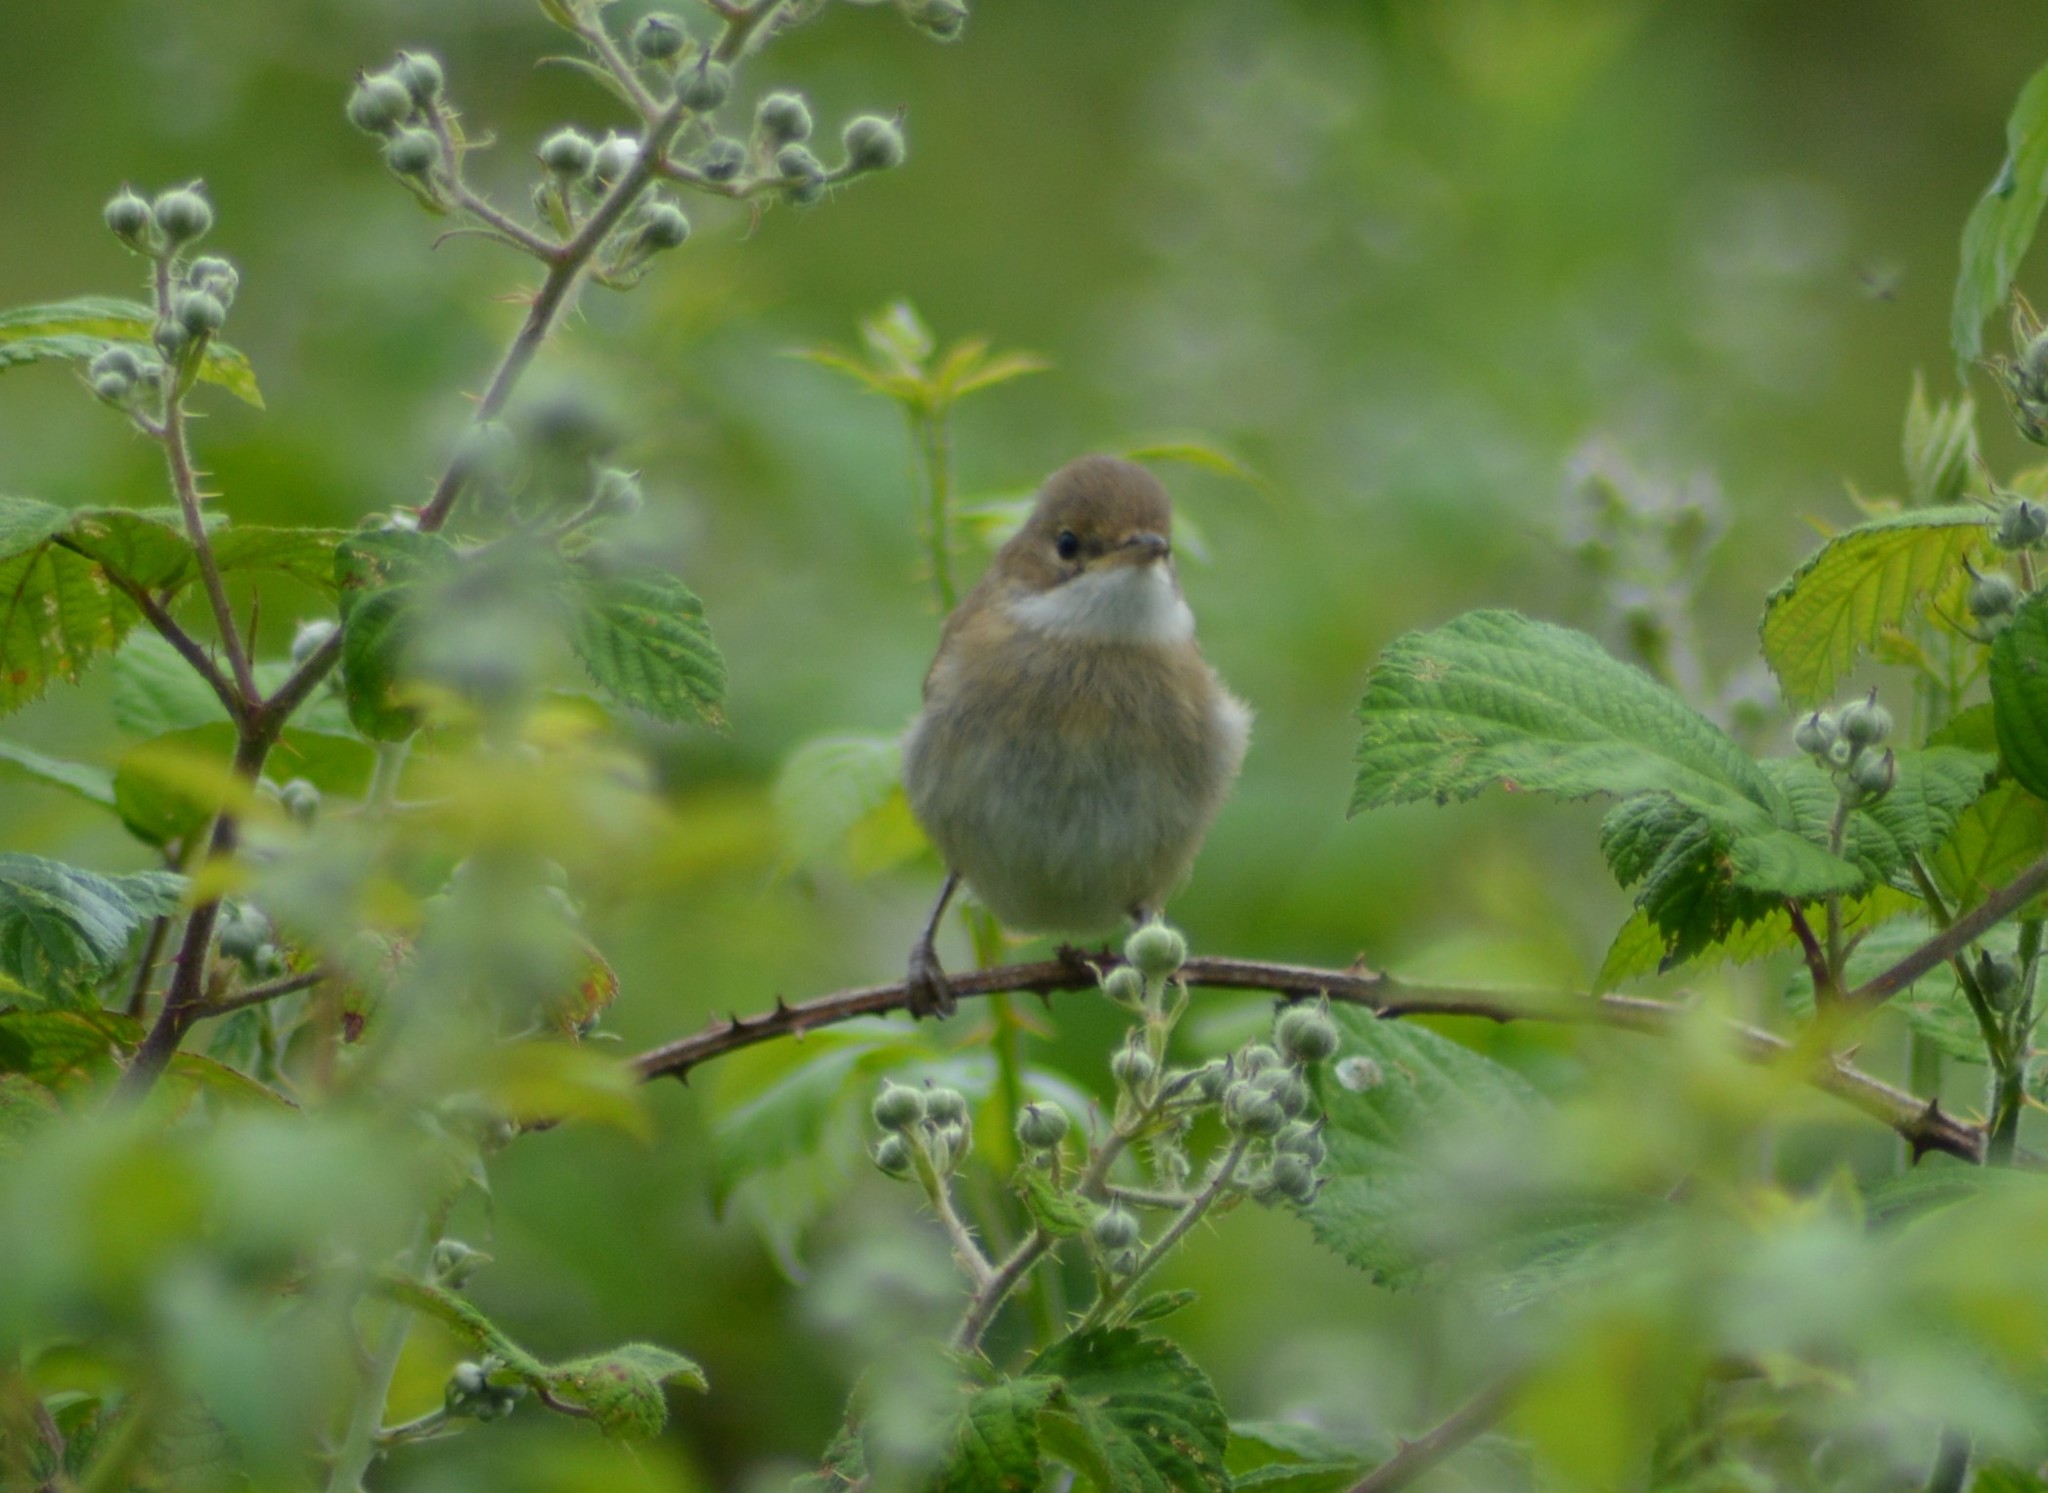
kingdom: Animalia
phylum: Chordata
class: Aves
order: Passeriformes
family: Sylviidae
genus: Sylvia
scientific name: Sylvia communis
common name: Common whitethroat
